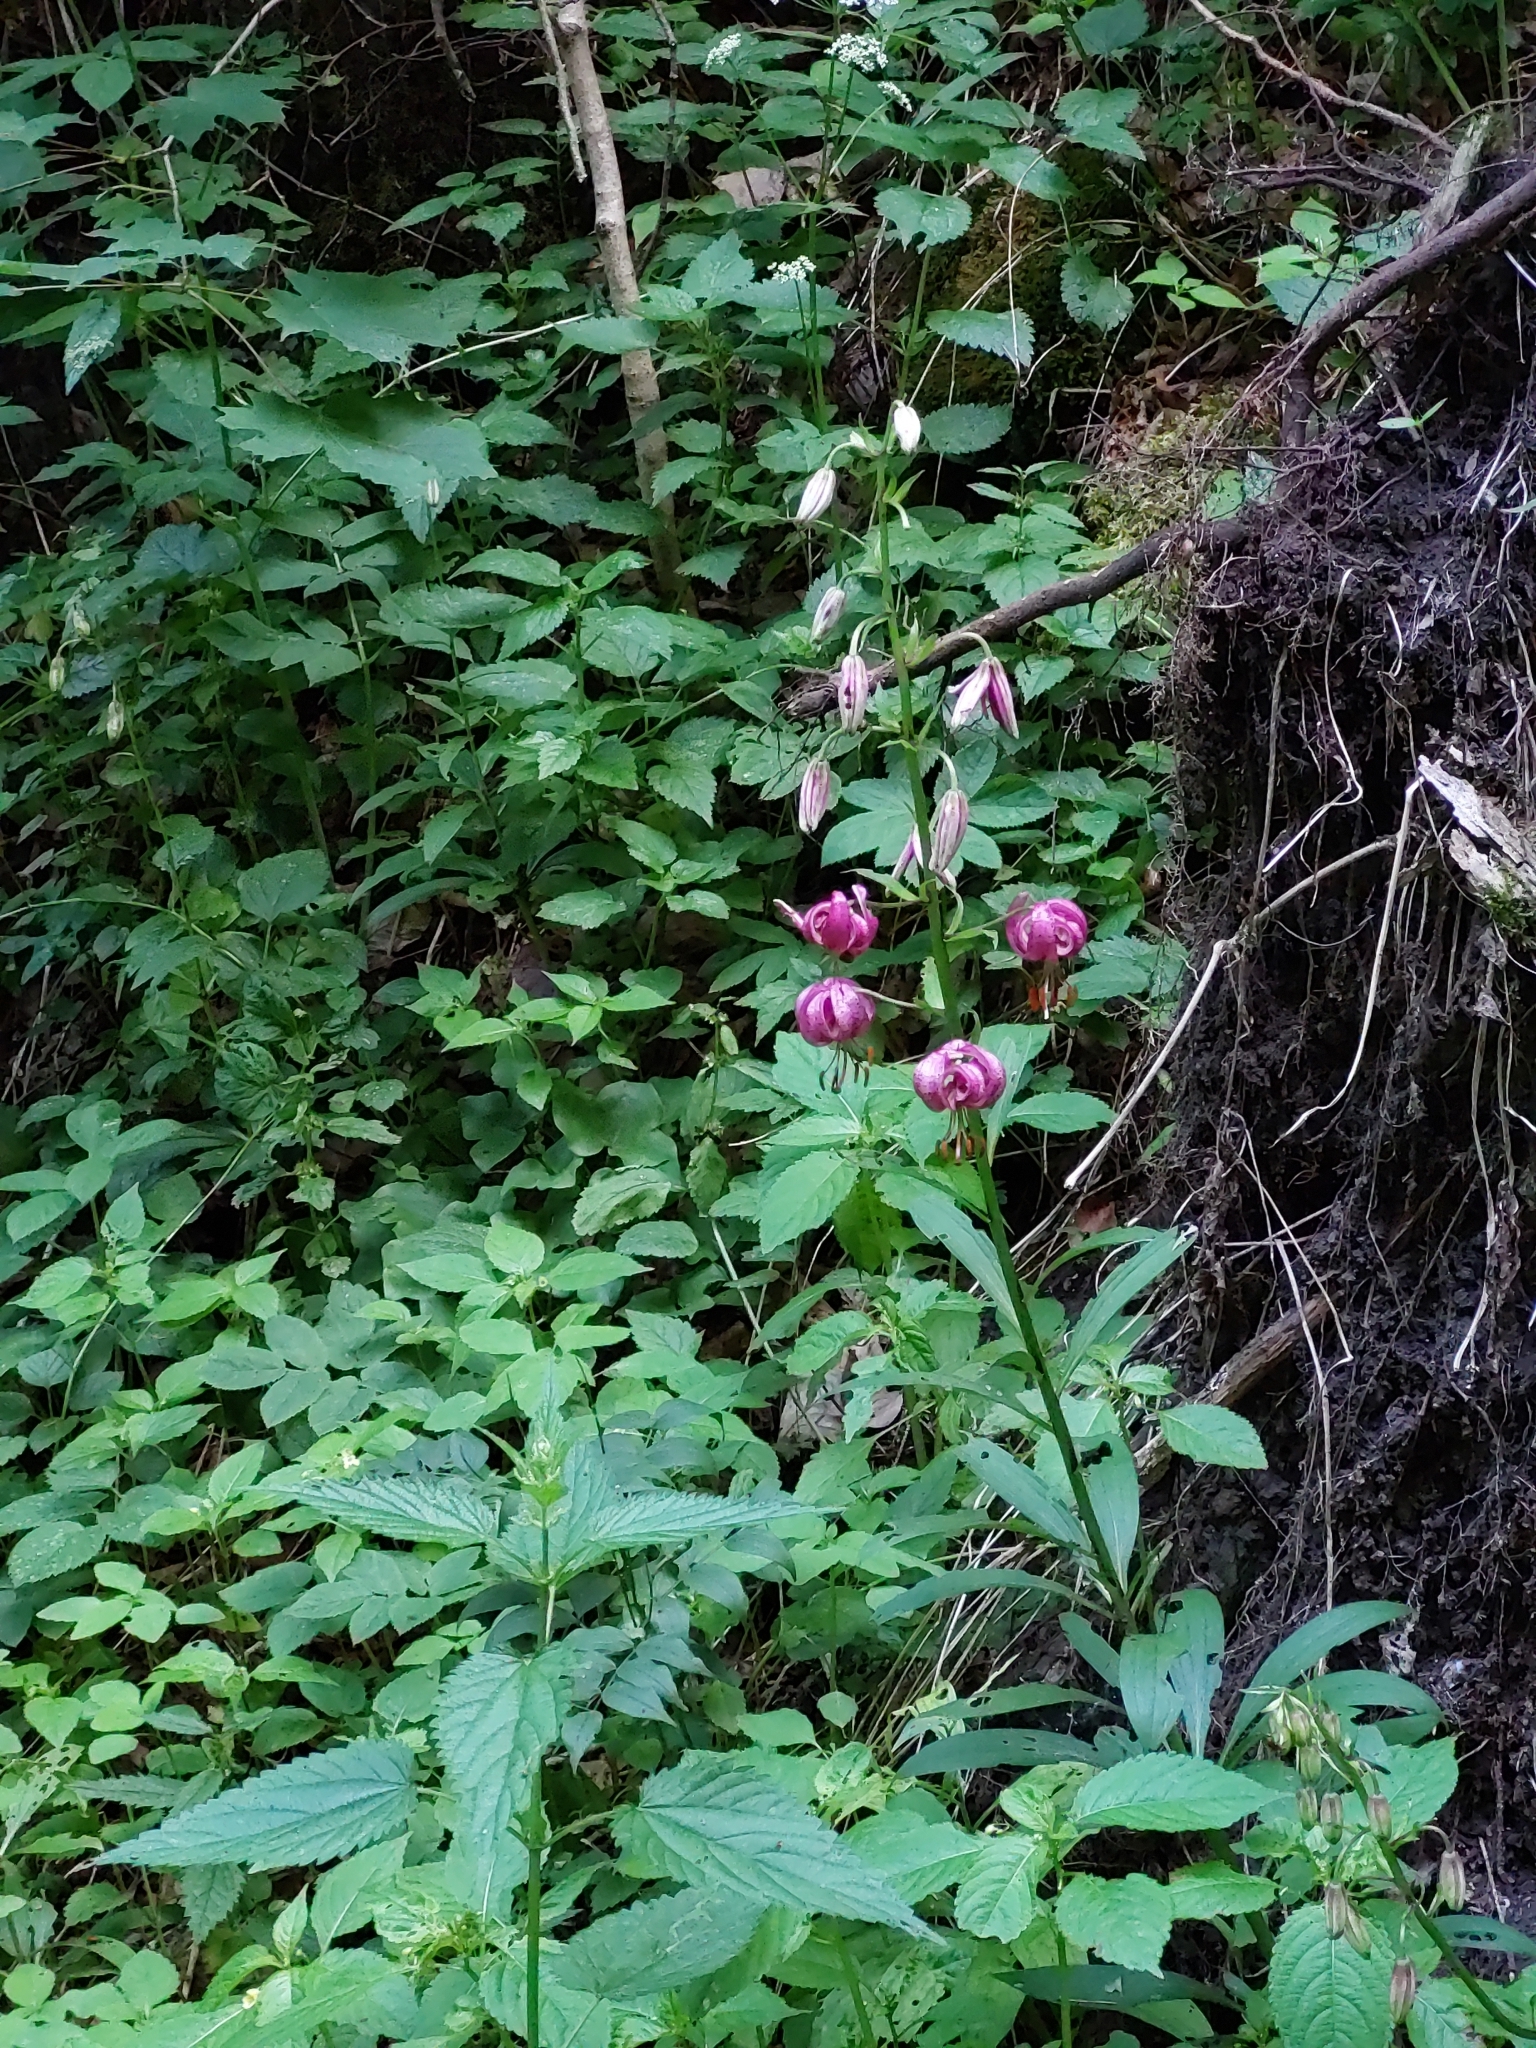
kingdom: Plantae
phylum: Tracheophyta
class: Liliopsida
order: Liliales
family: Liliaceae
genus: Lilium
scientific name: Lilium martagon
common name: Martagon lily
